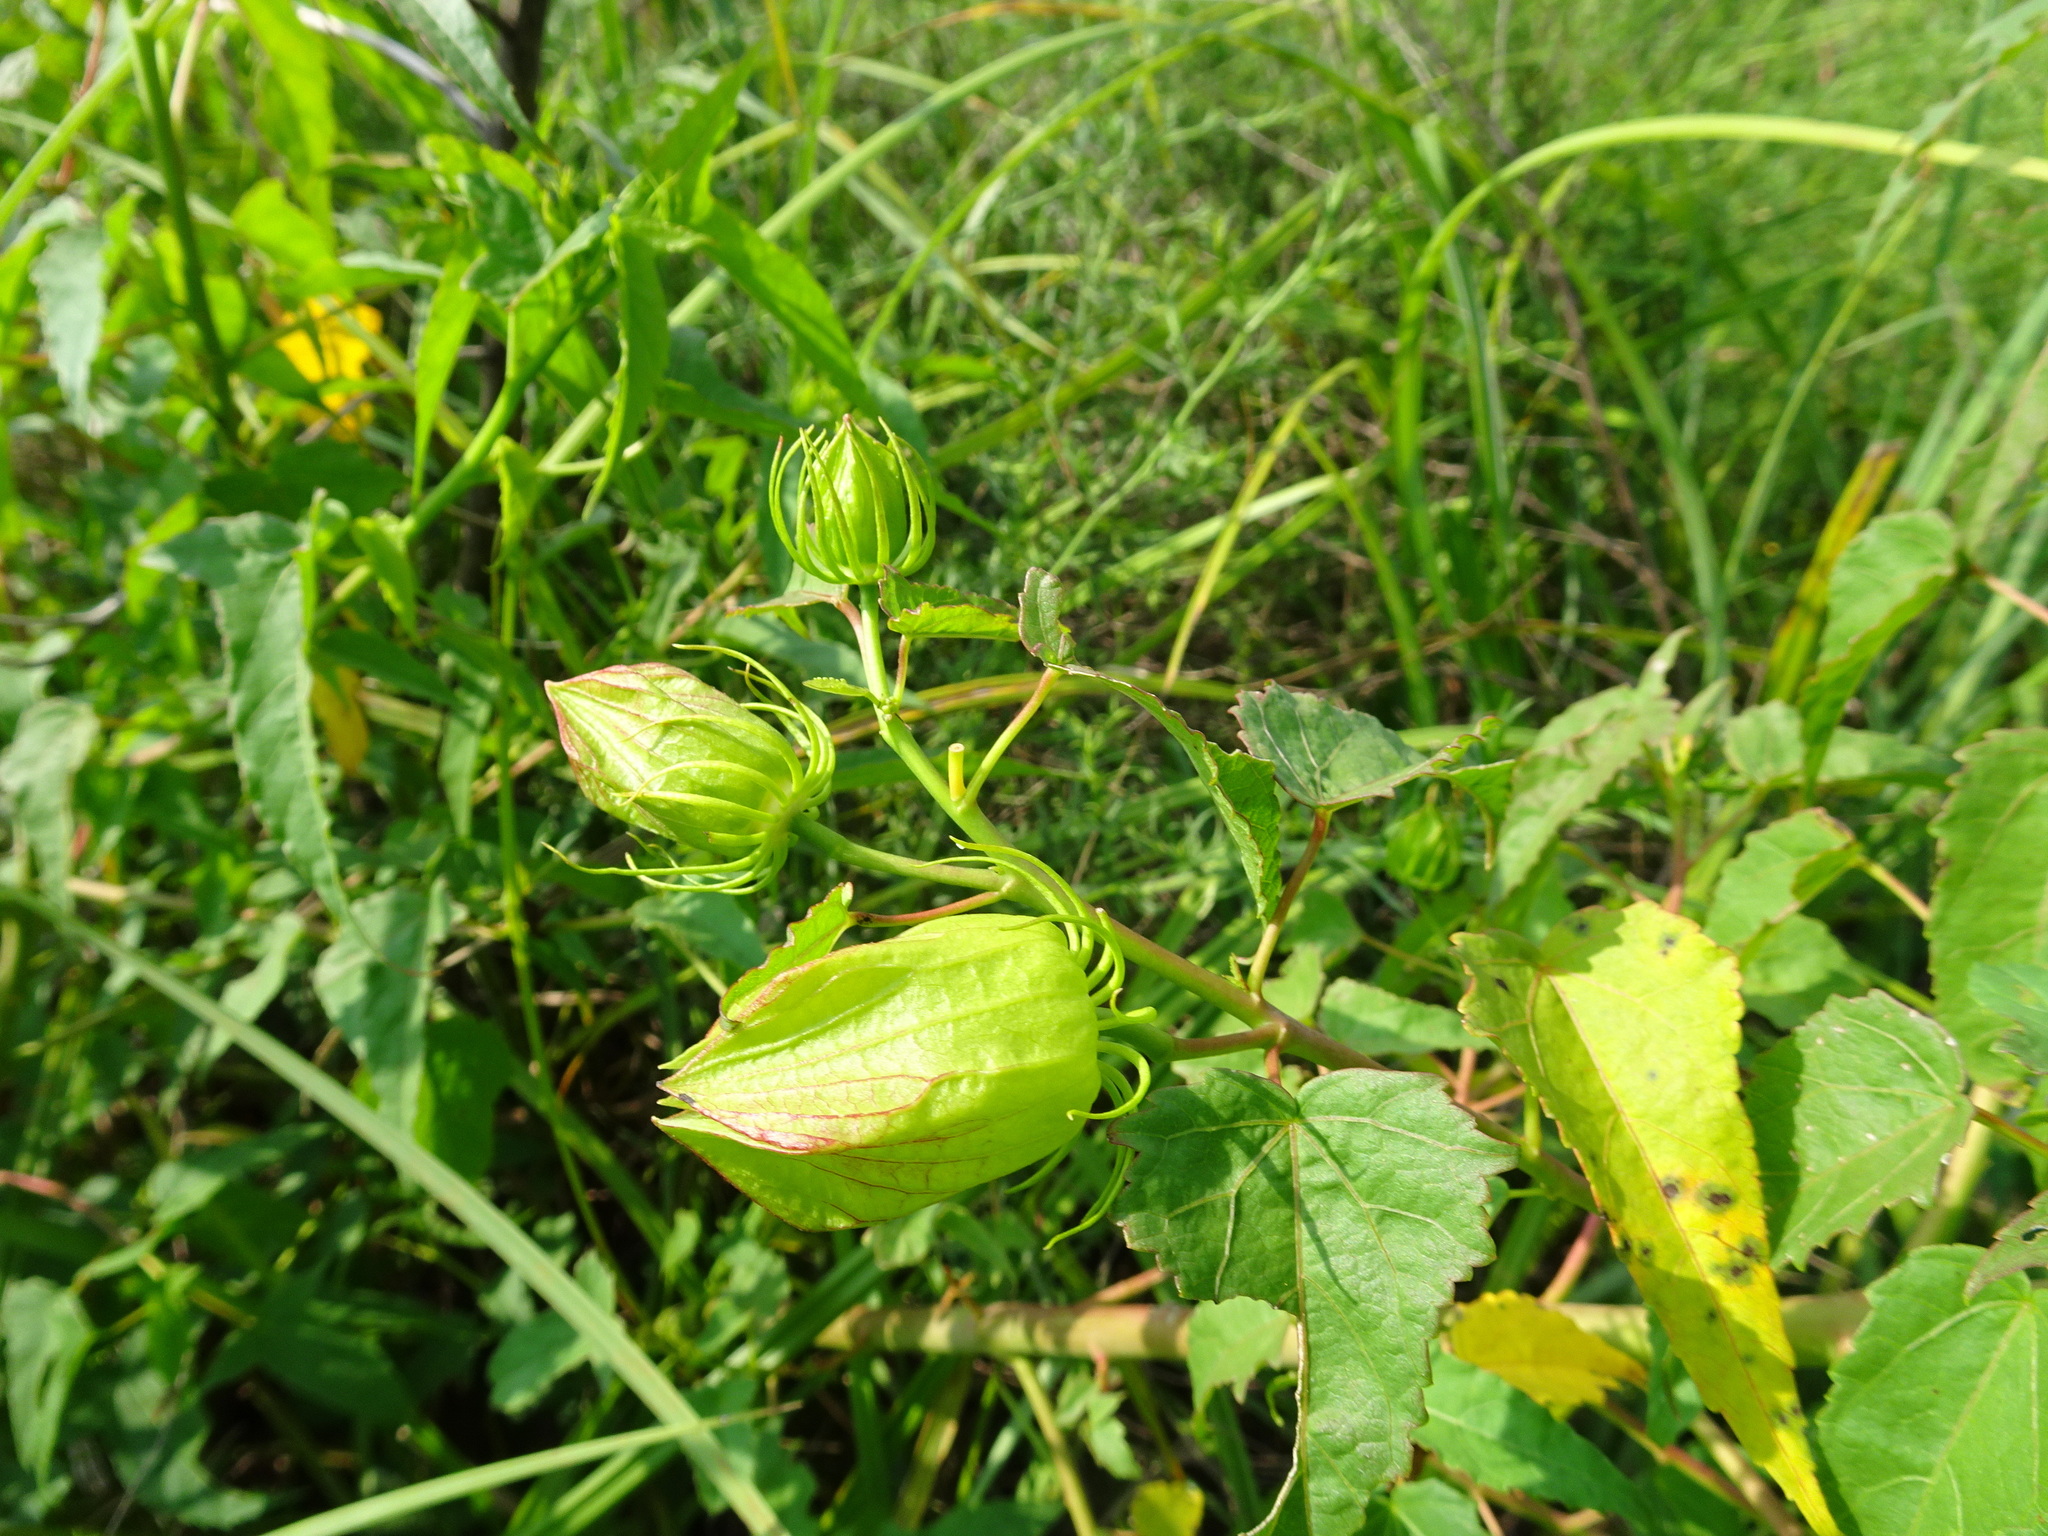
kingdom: Plantae
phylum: Tracheophyta
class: Magnoliopsida
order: Malvales
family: Malvaceae
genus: Hibiscus
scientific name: Hibiscus laevis
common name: Scarlet rose-mallow
